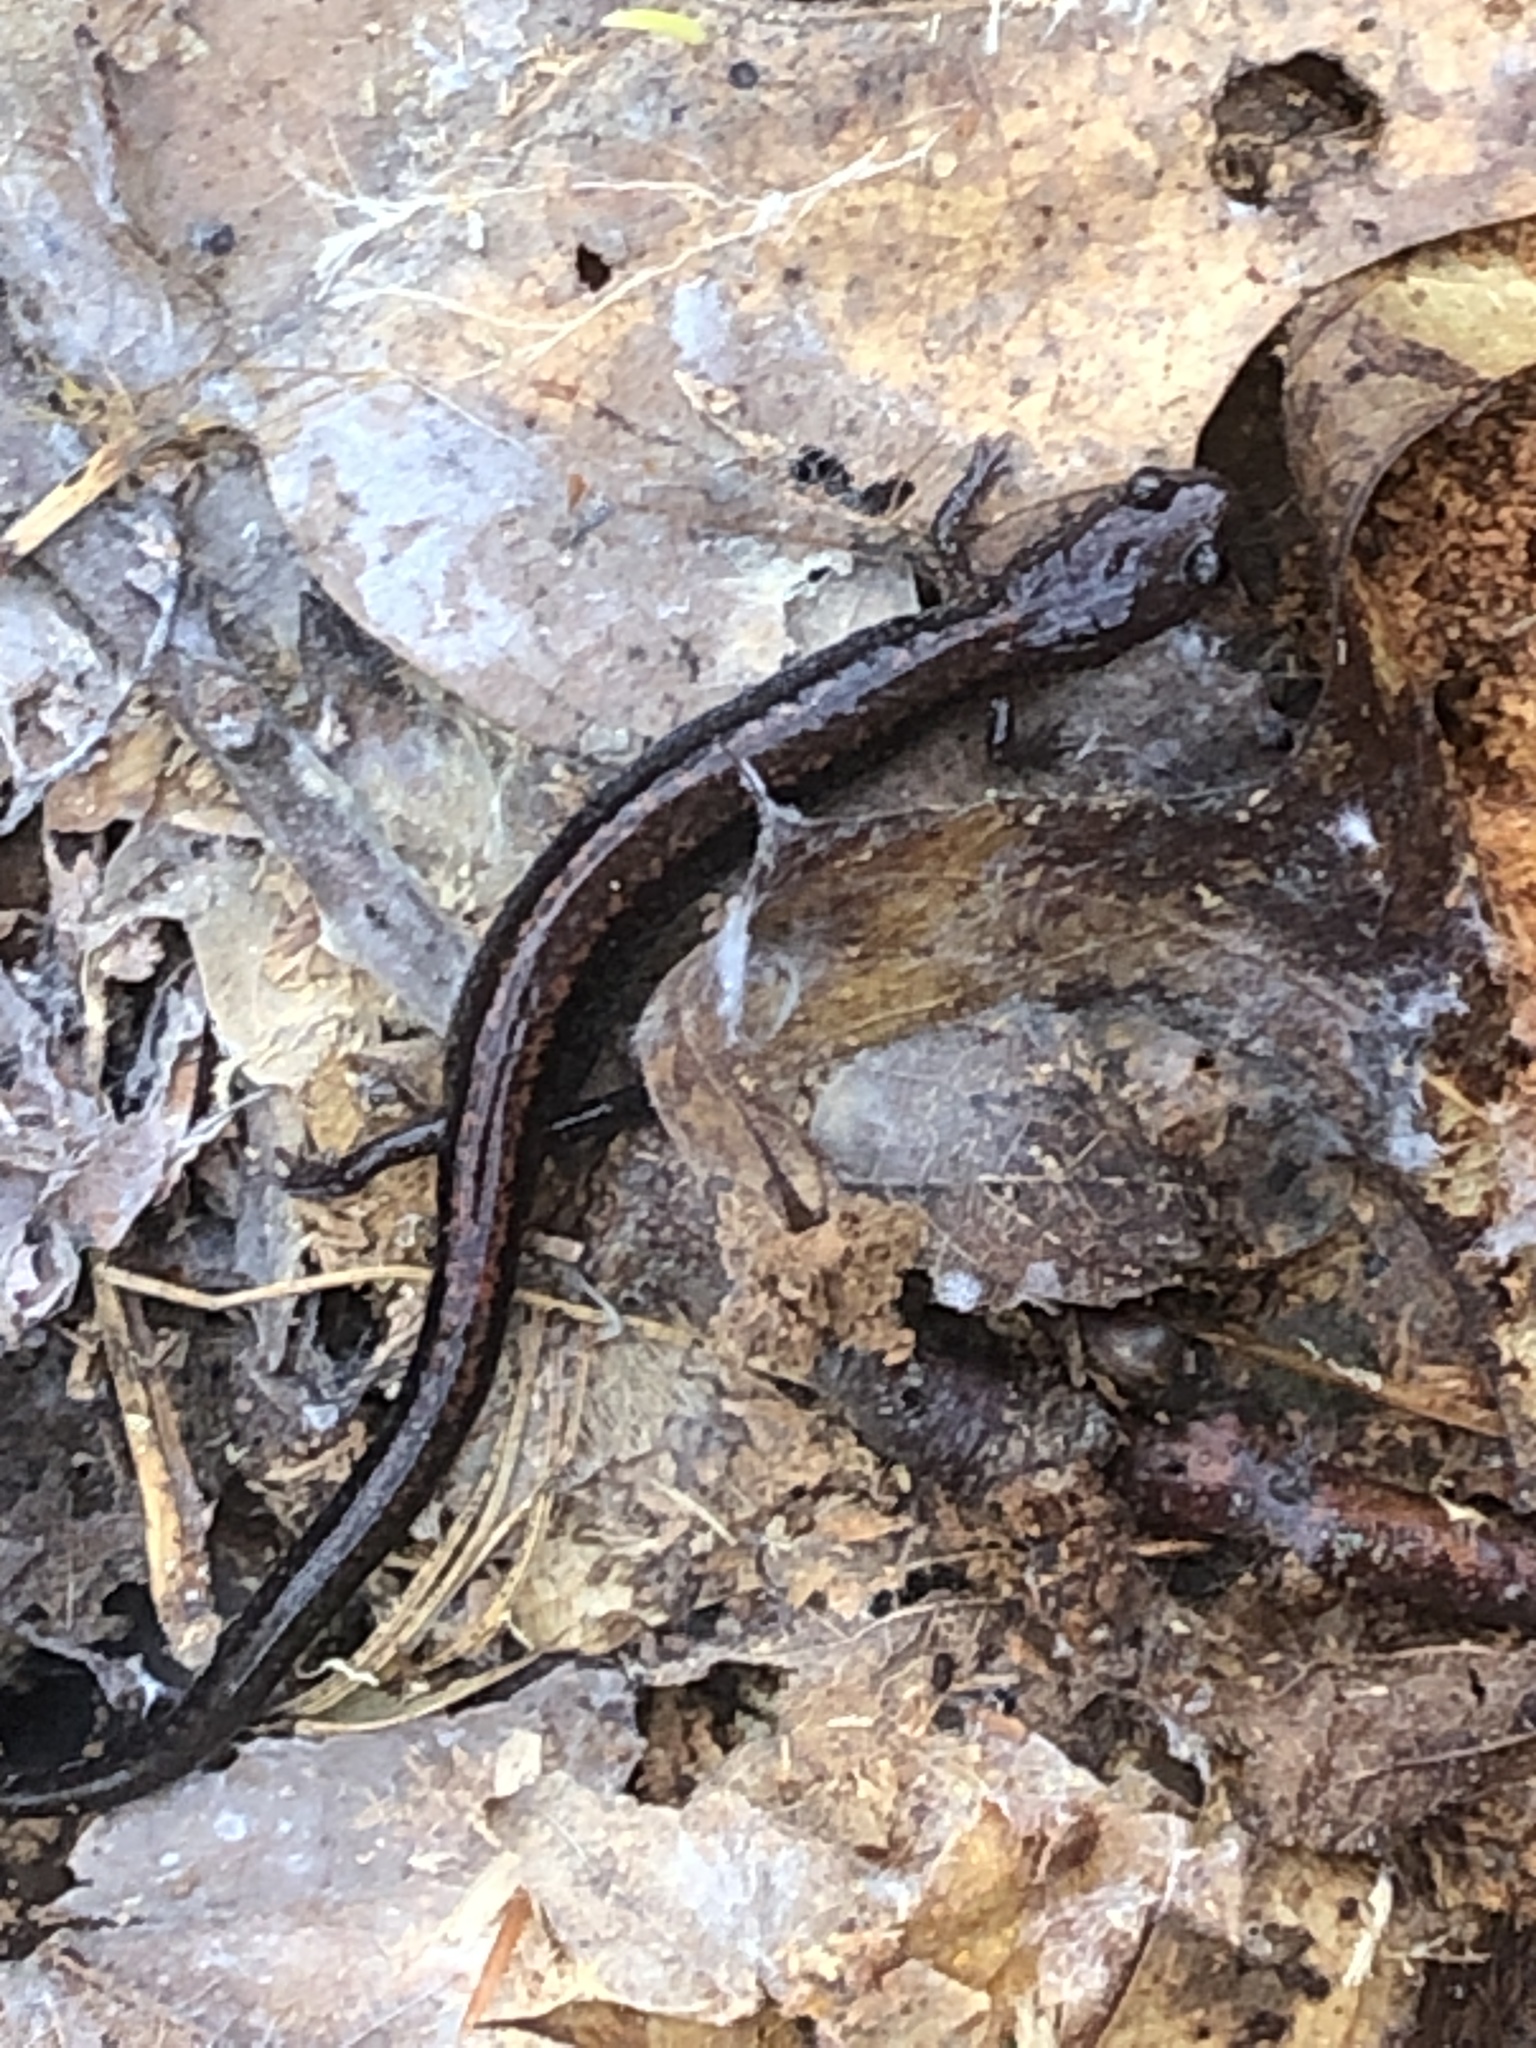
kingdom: Animalia
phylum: Chordata
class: Amphibia
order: Caudata
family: Plethodontidae
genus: Plethodon
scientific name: Plethodon cinereus
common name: Redback salamander
